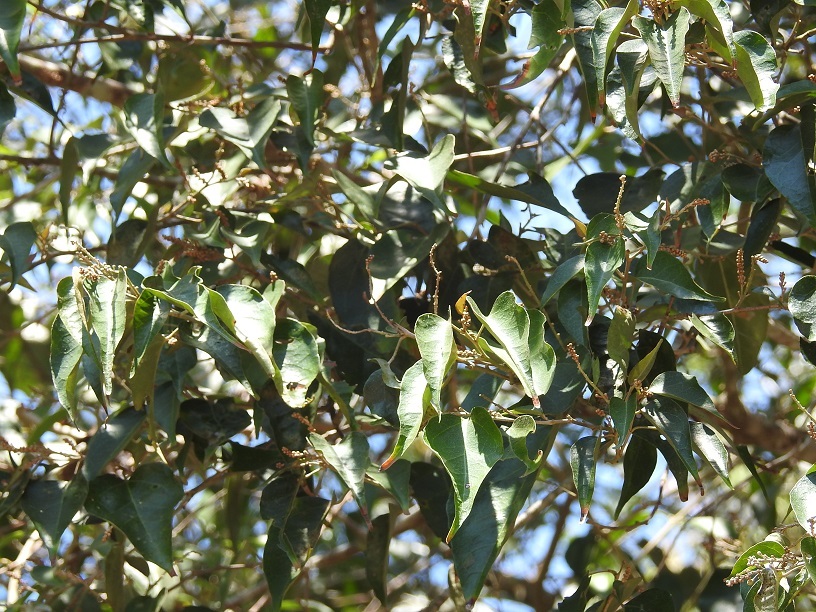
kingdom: Plantae
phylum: Tracheophyta
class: Magnoliopsida
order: Malpighiales
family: Euphorbiaceae
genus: Croton
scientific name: Croton reflexifolius
